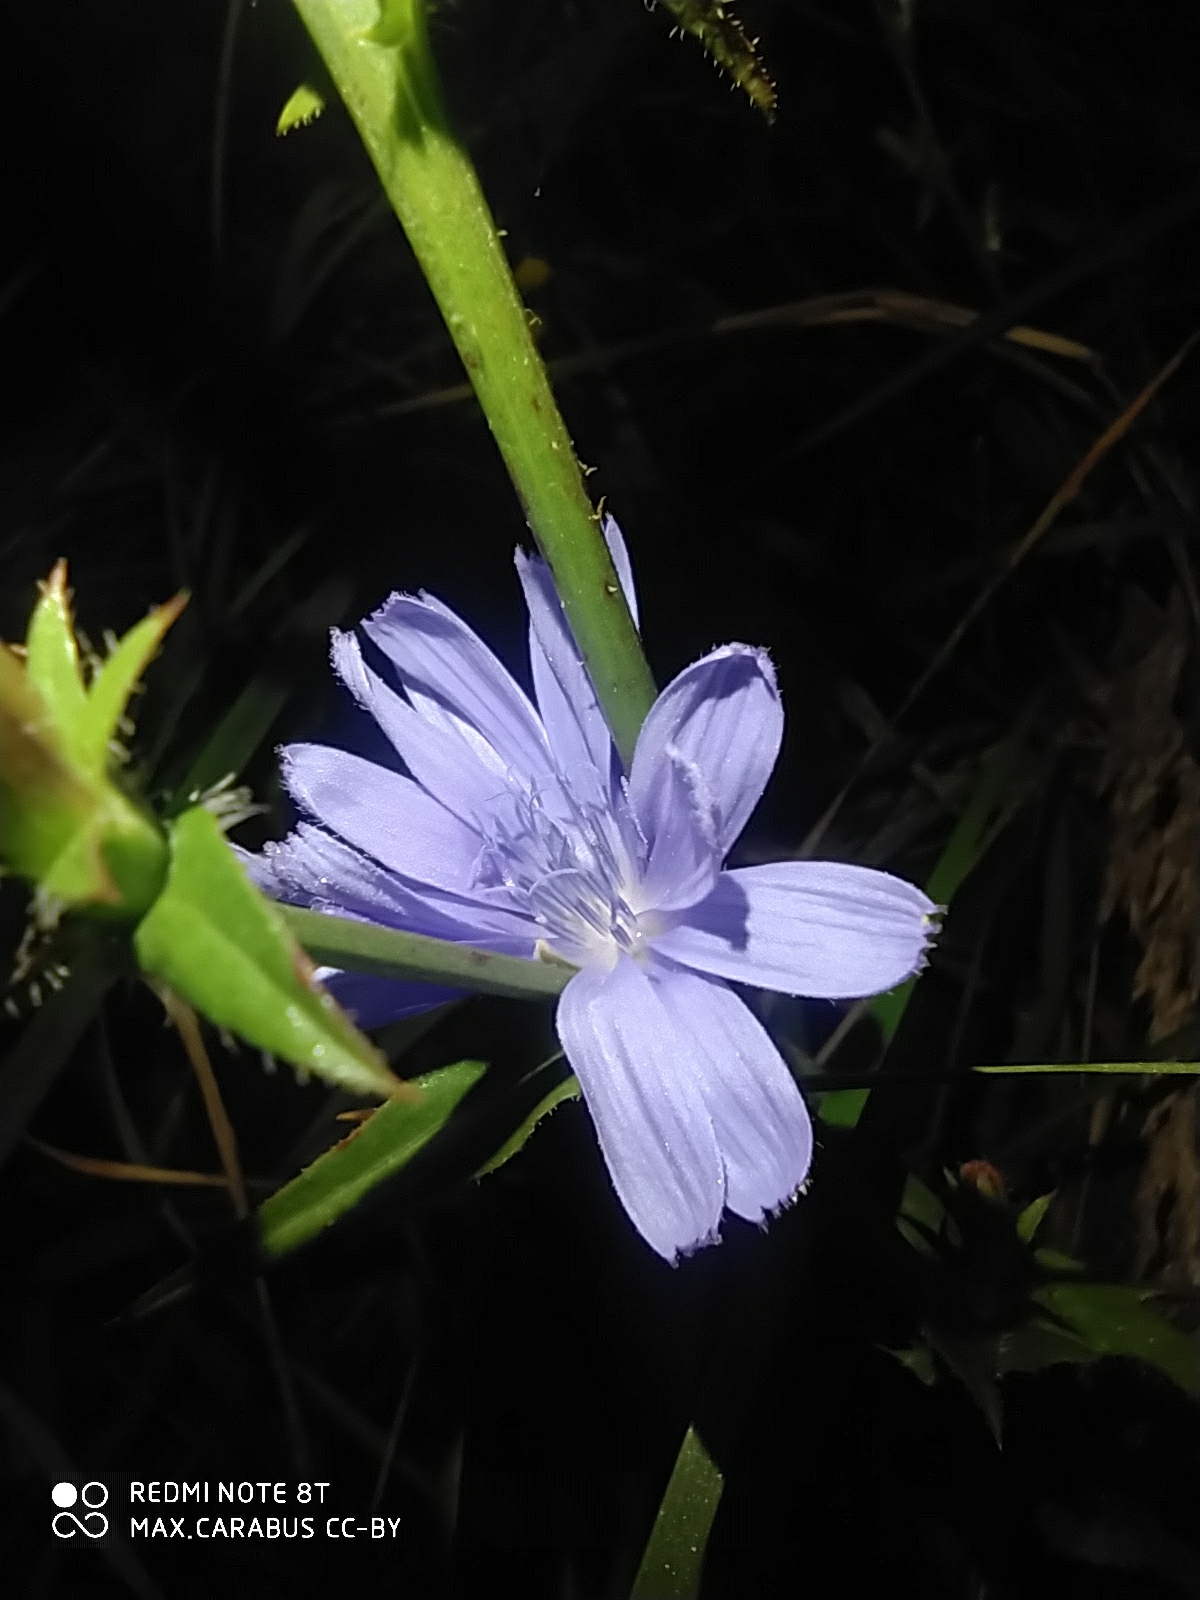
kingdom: Plantae
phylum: Tracheophyta
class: Magnoliopsida
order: Asterales
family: Asteraceae
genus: Cichorium
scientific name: Cichorium intybus
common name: Chicory
